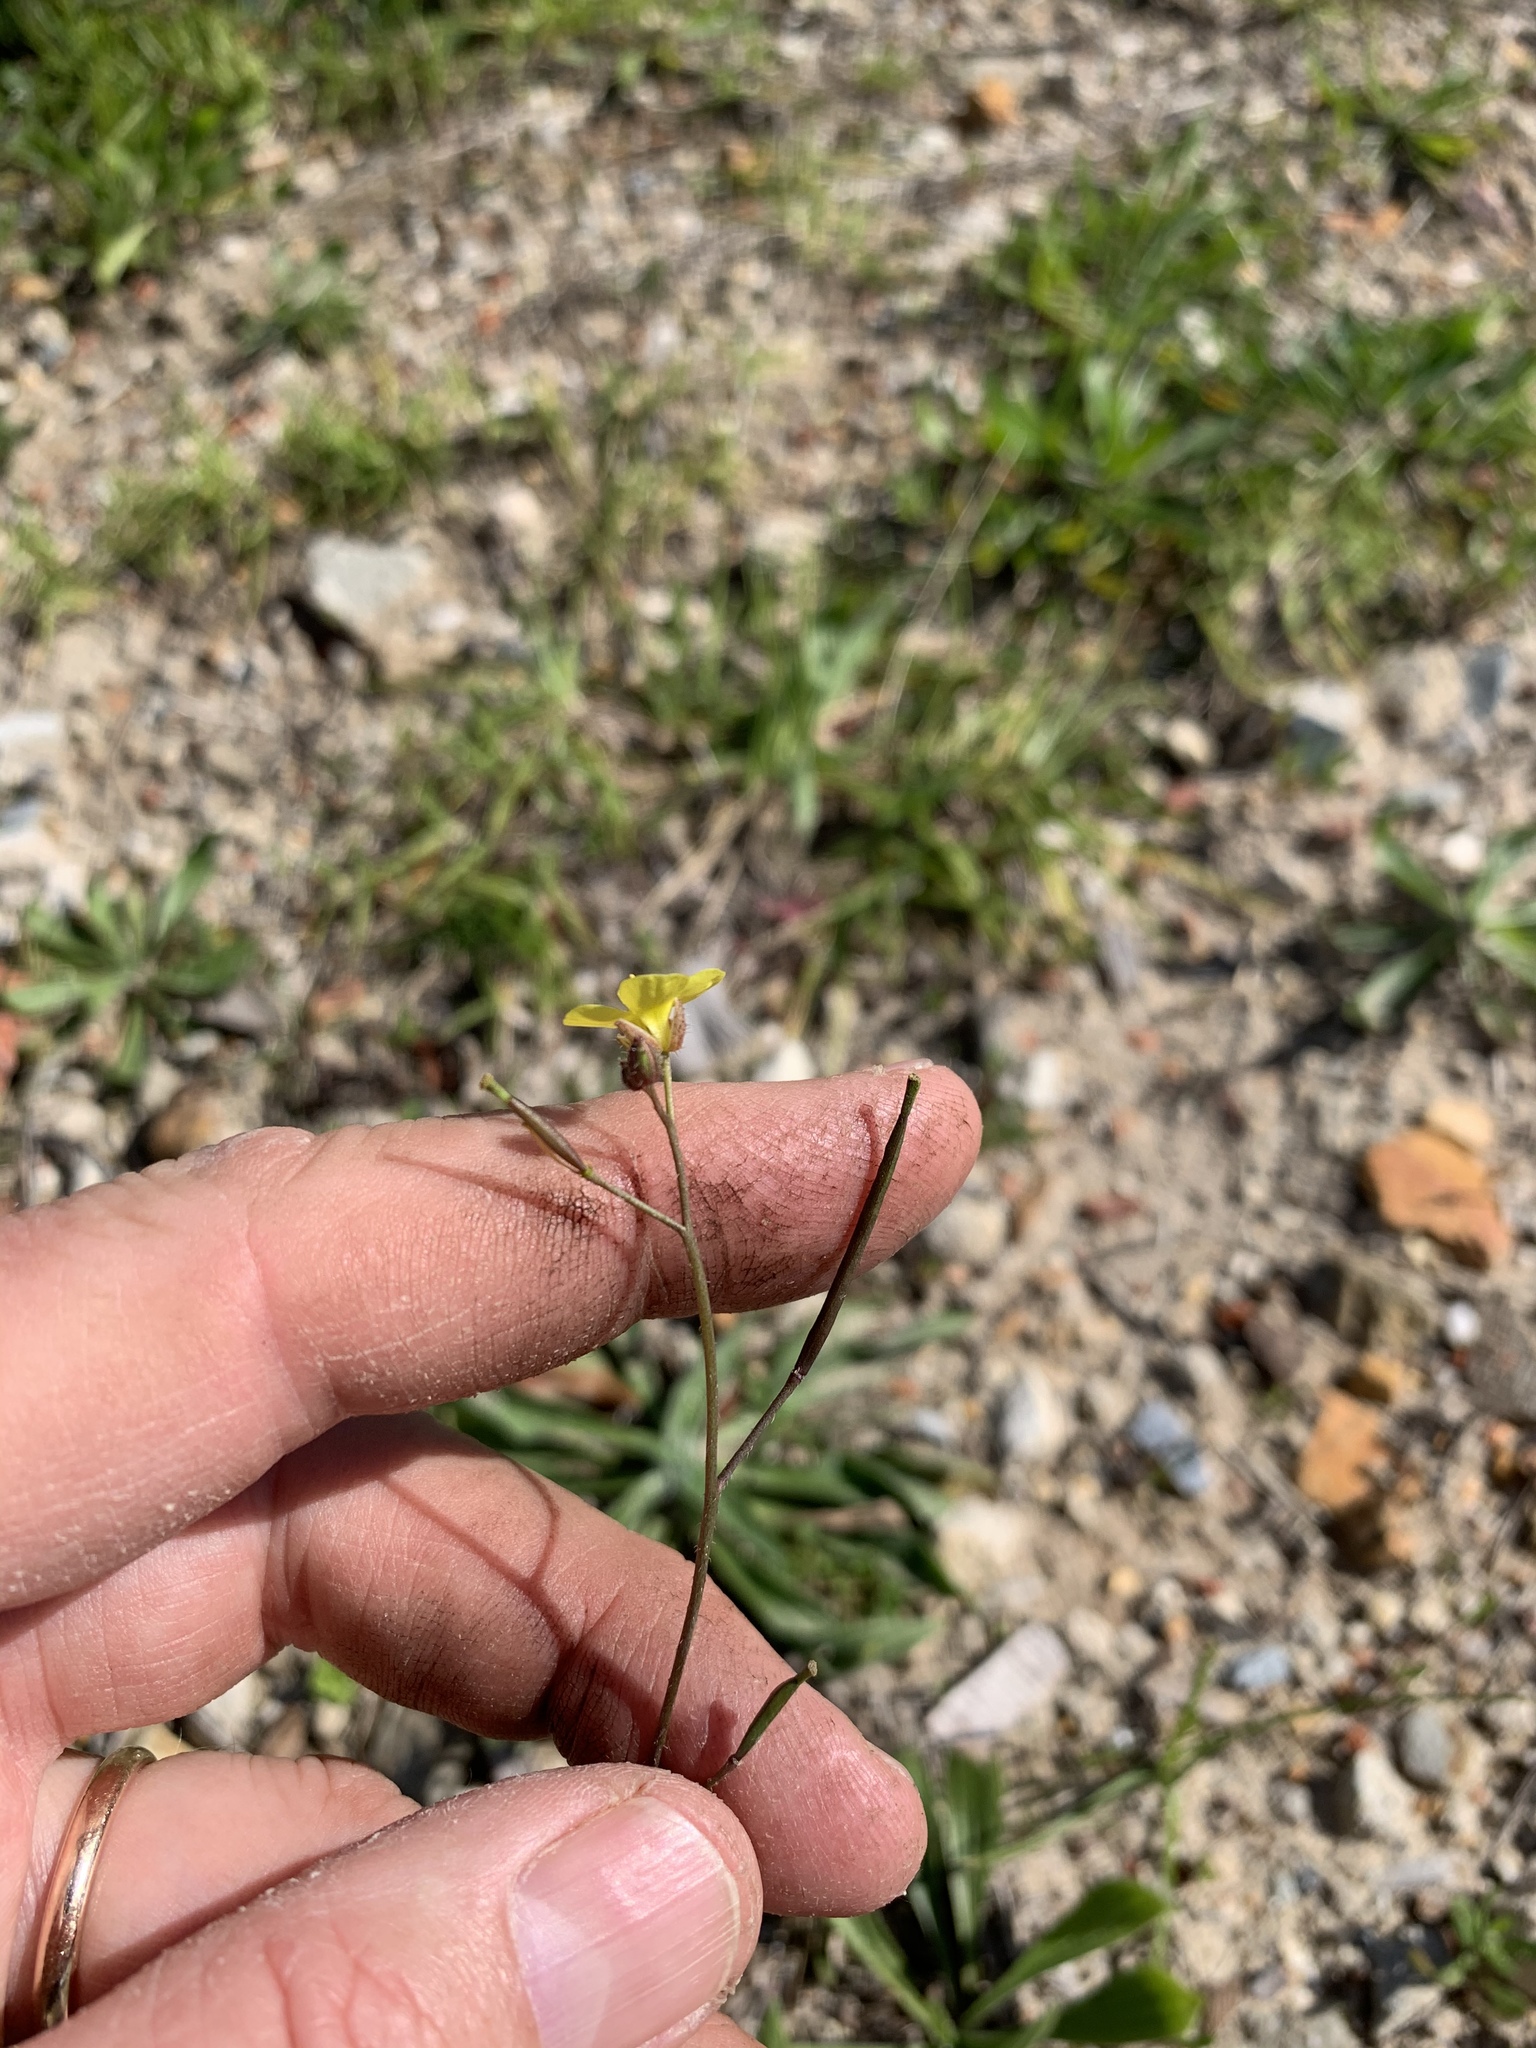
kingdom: Plantae
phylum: Tracheophyta
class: Magnoliopsida
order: Brassicales
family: Brassicaceae
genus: Diplotaxis
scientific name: Diplotaxis muralis
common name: Annual wall-rocket
